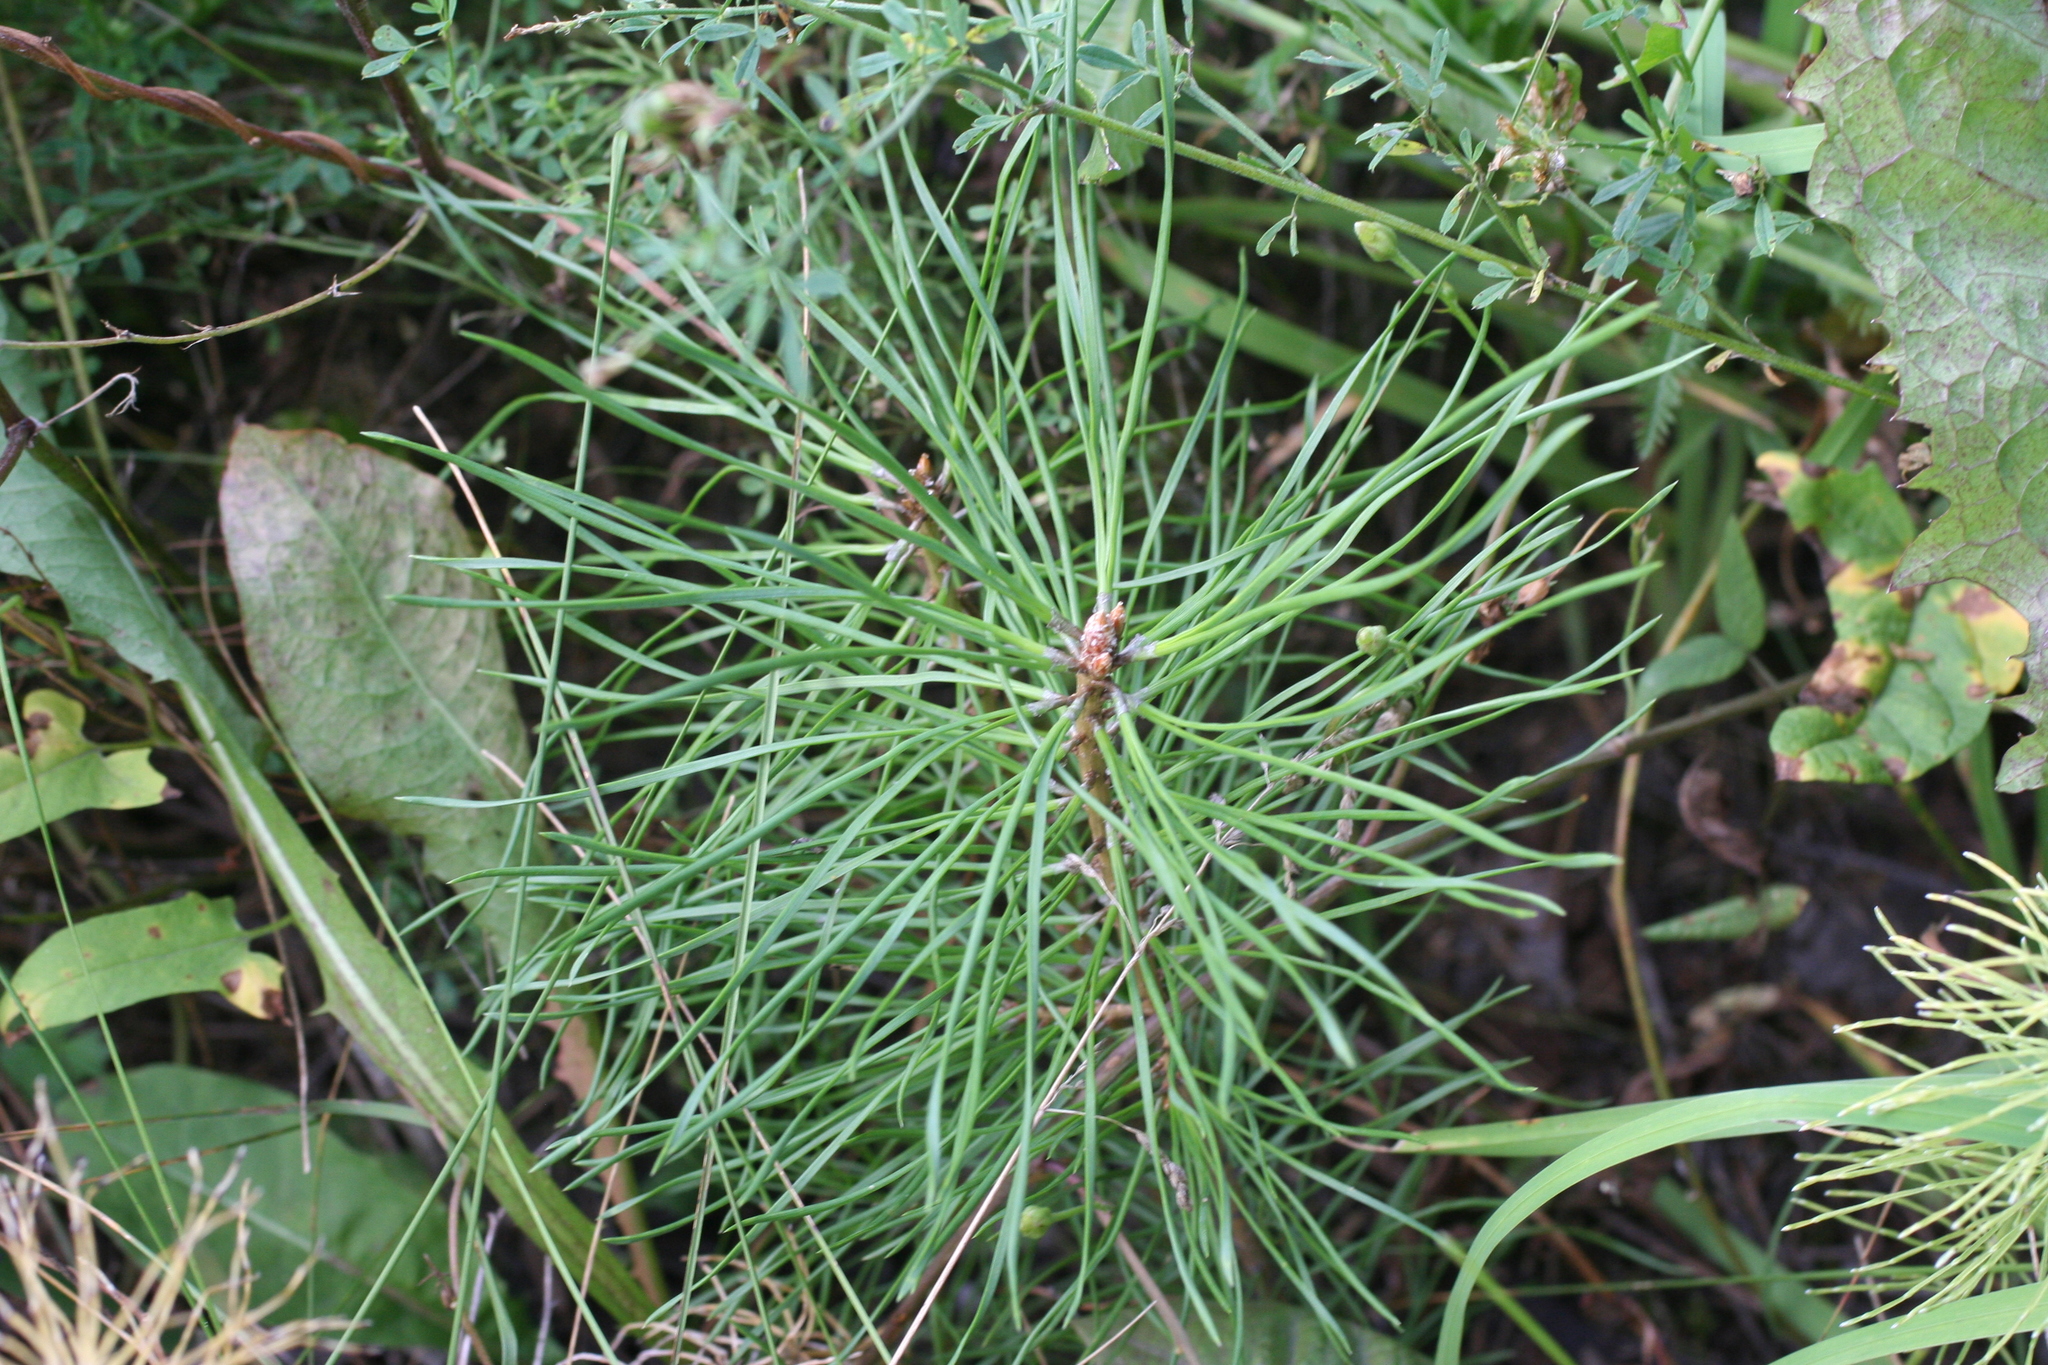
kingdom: Plantae
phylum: Tracheophyta
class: Pinopsida
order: Pinales
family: Pinaceae
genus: Pinus
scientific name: Pinus sylvestris
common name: Scots pine
